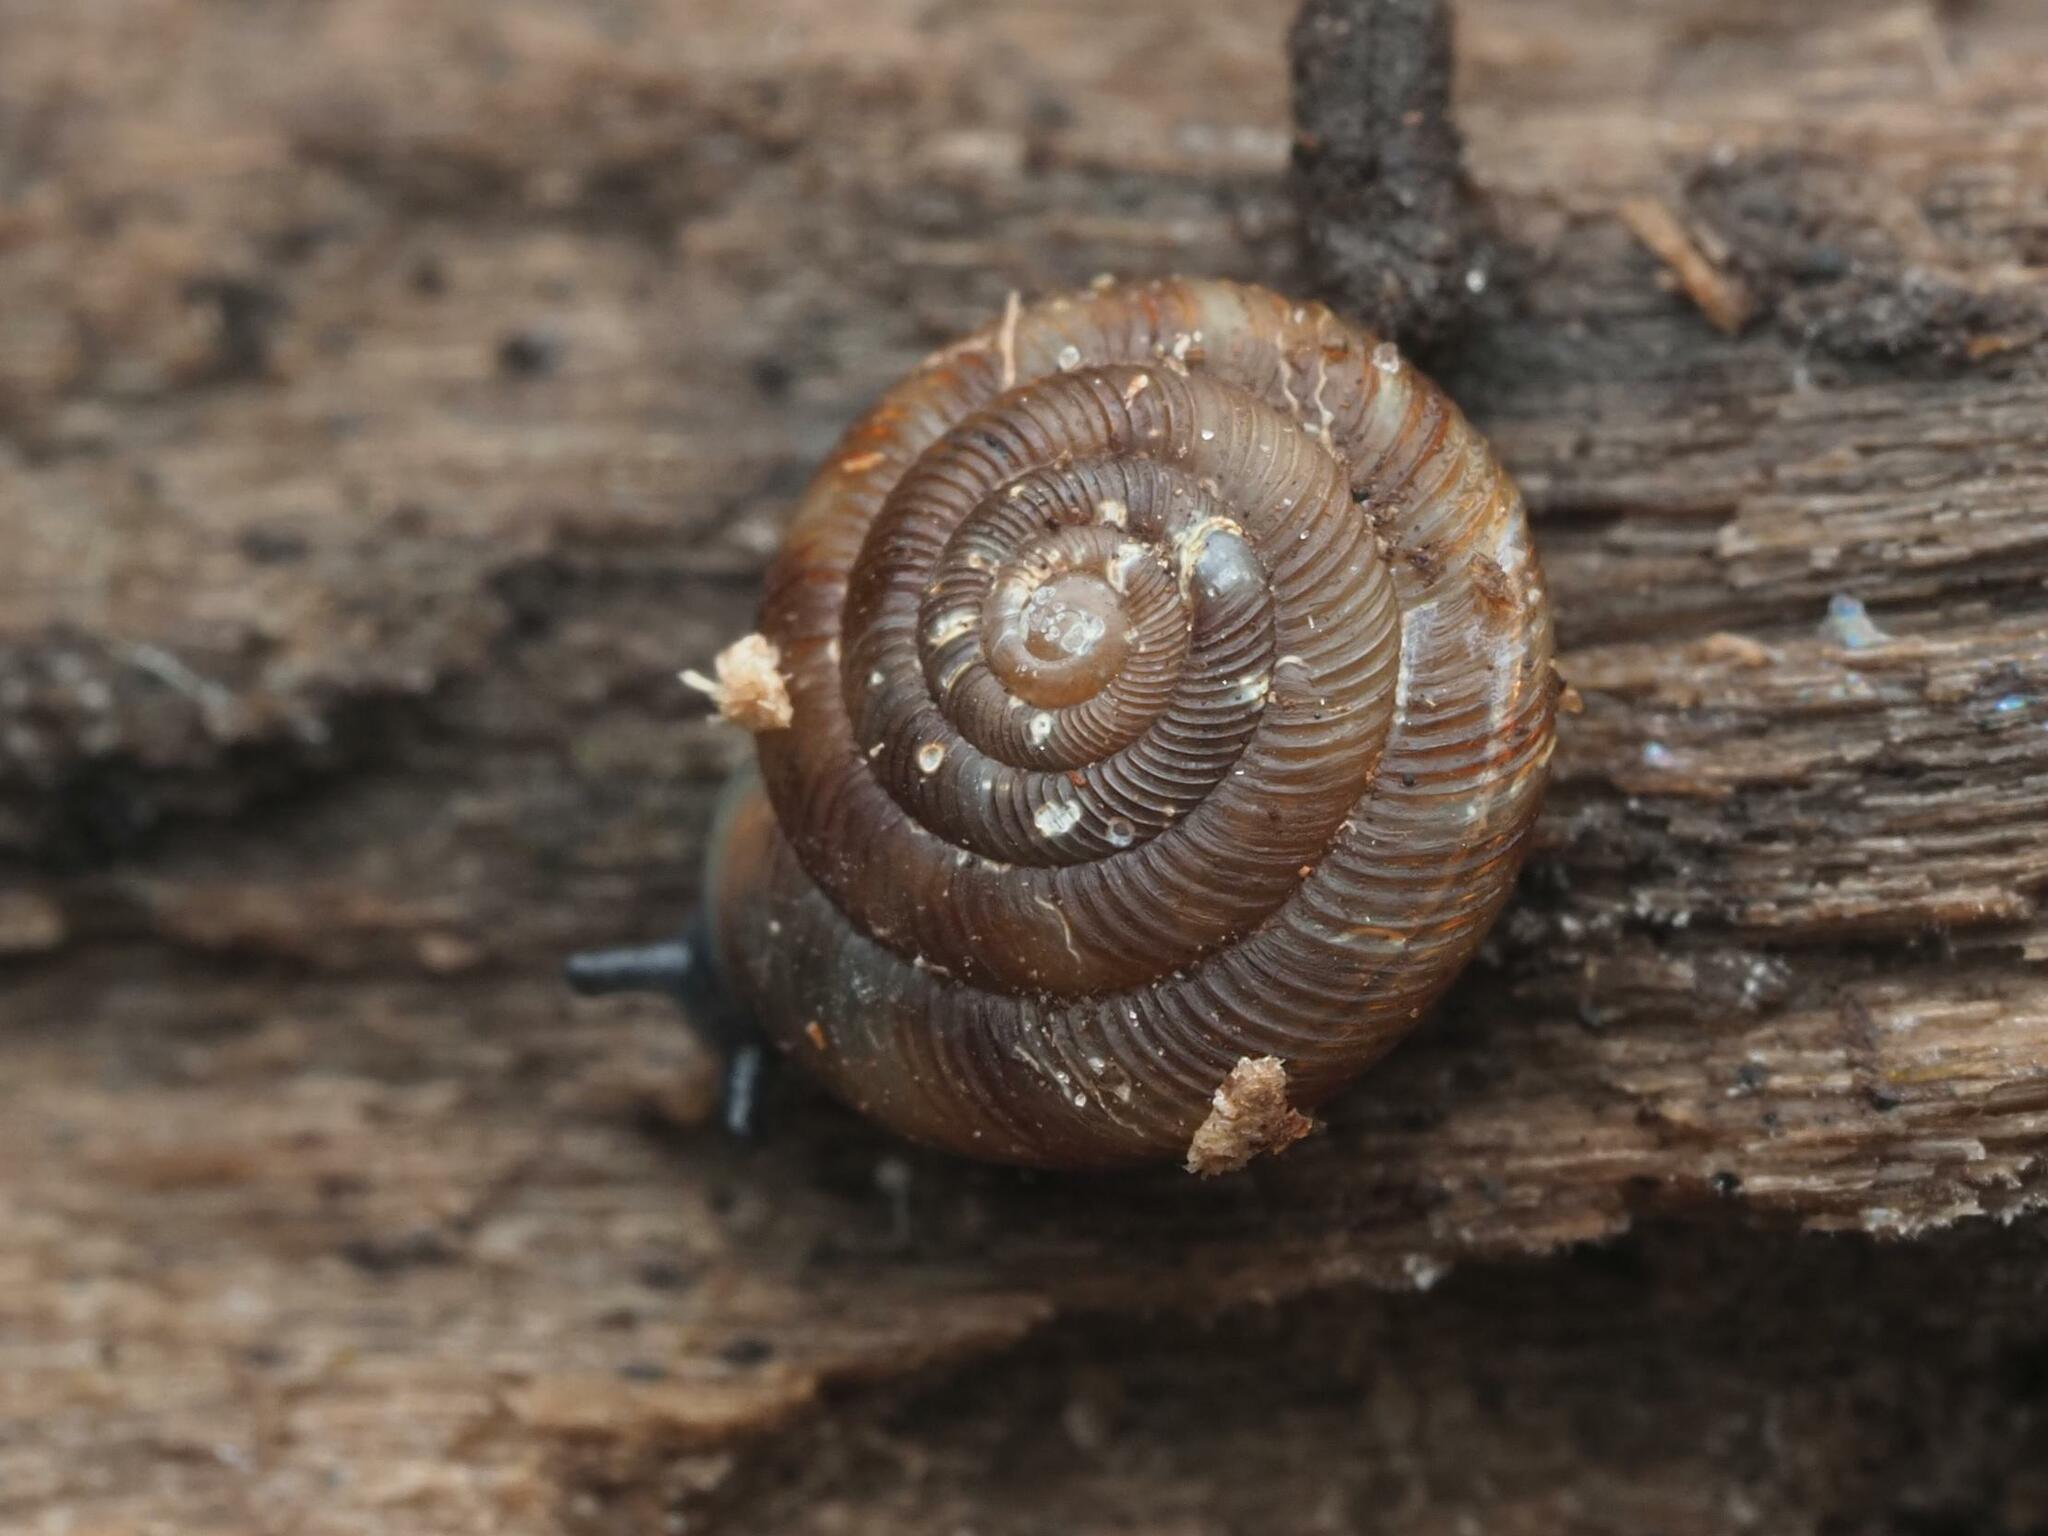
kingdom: Animalia
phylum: Mollusca
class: Gastropoda
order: Stylommatophora
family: Discidae
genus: Discus
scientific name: Discus rotundatus
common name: Rounded snail
